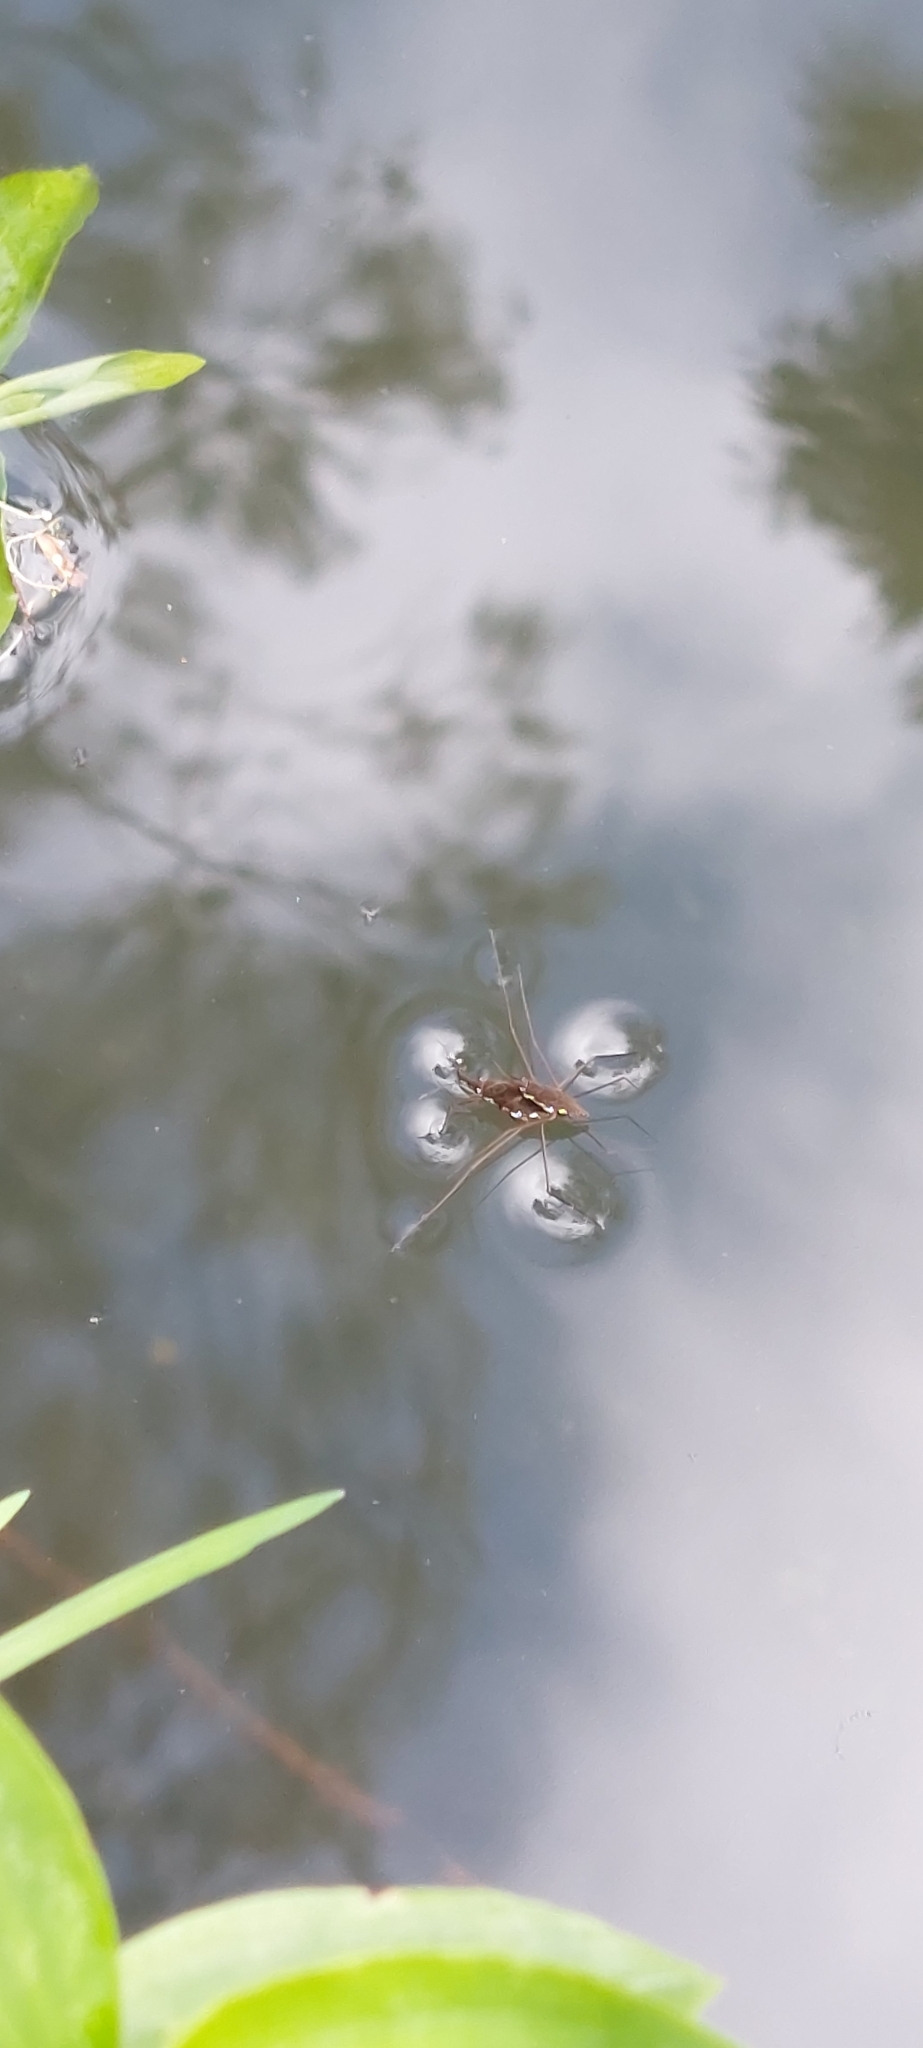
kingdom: Animalia
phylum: Arthropoda
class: Insecta
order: Hemiptera
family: Gerridae
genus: Eurygerris
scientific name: Eurygerris
